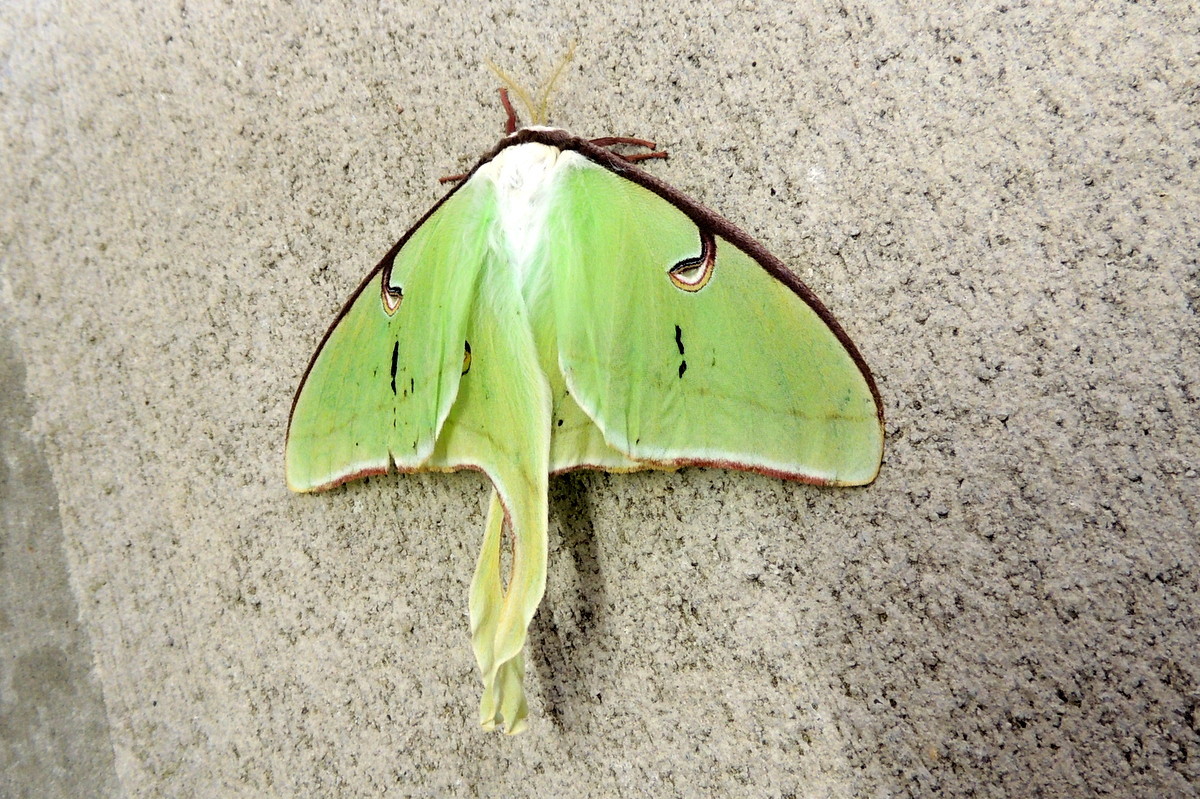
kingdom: Animalia
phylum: Arthropoda
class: Insecta
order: Lepidoptera
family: Saturniidae
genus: Actias
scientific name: Actias luna
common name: Luna moth
